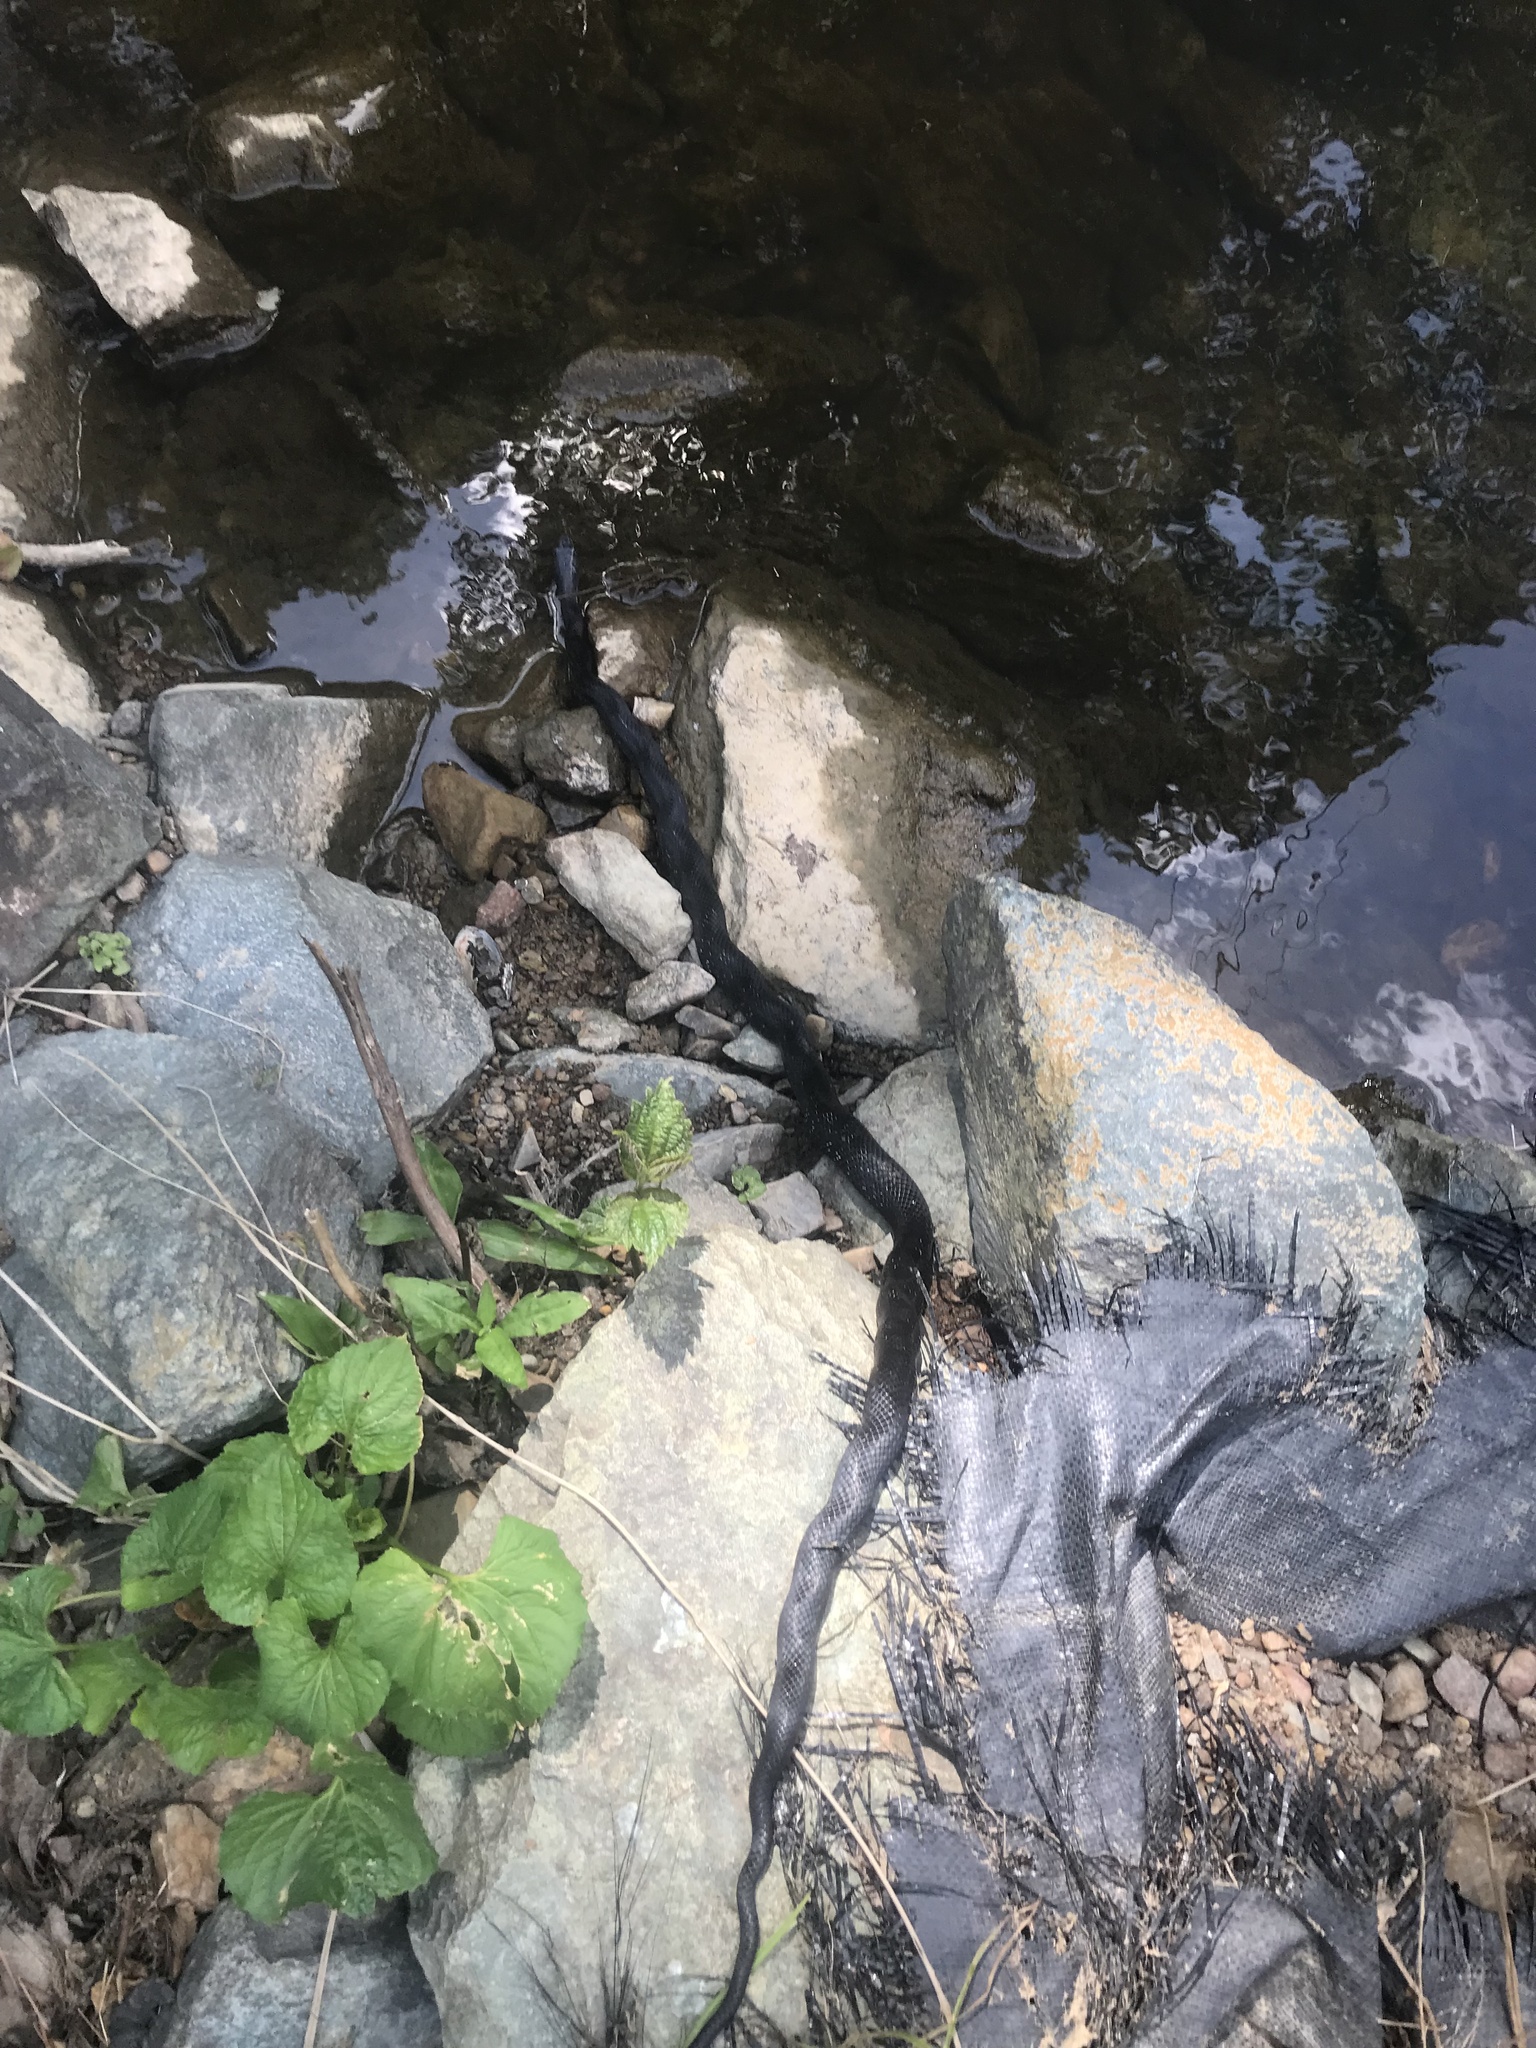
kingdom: Animalia
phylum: Chordata
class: Squamata
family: Colubridae
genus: Pantherophis
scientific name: Pantherophis alleghaniensis
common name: Eastern rat snake
